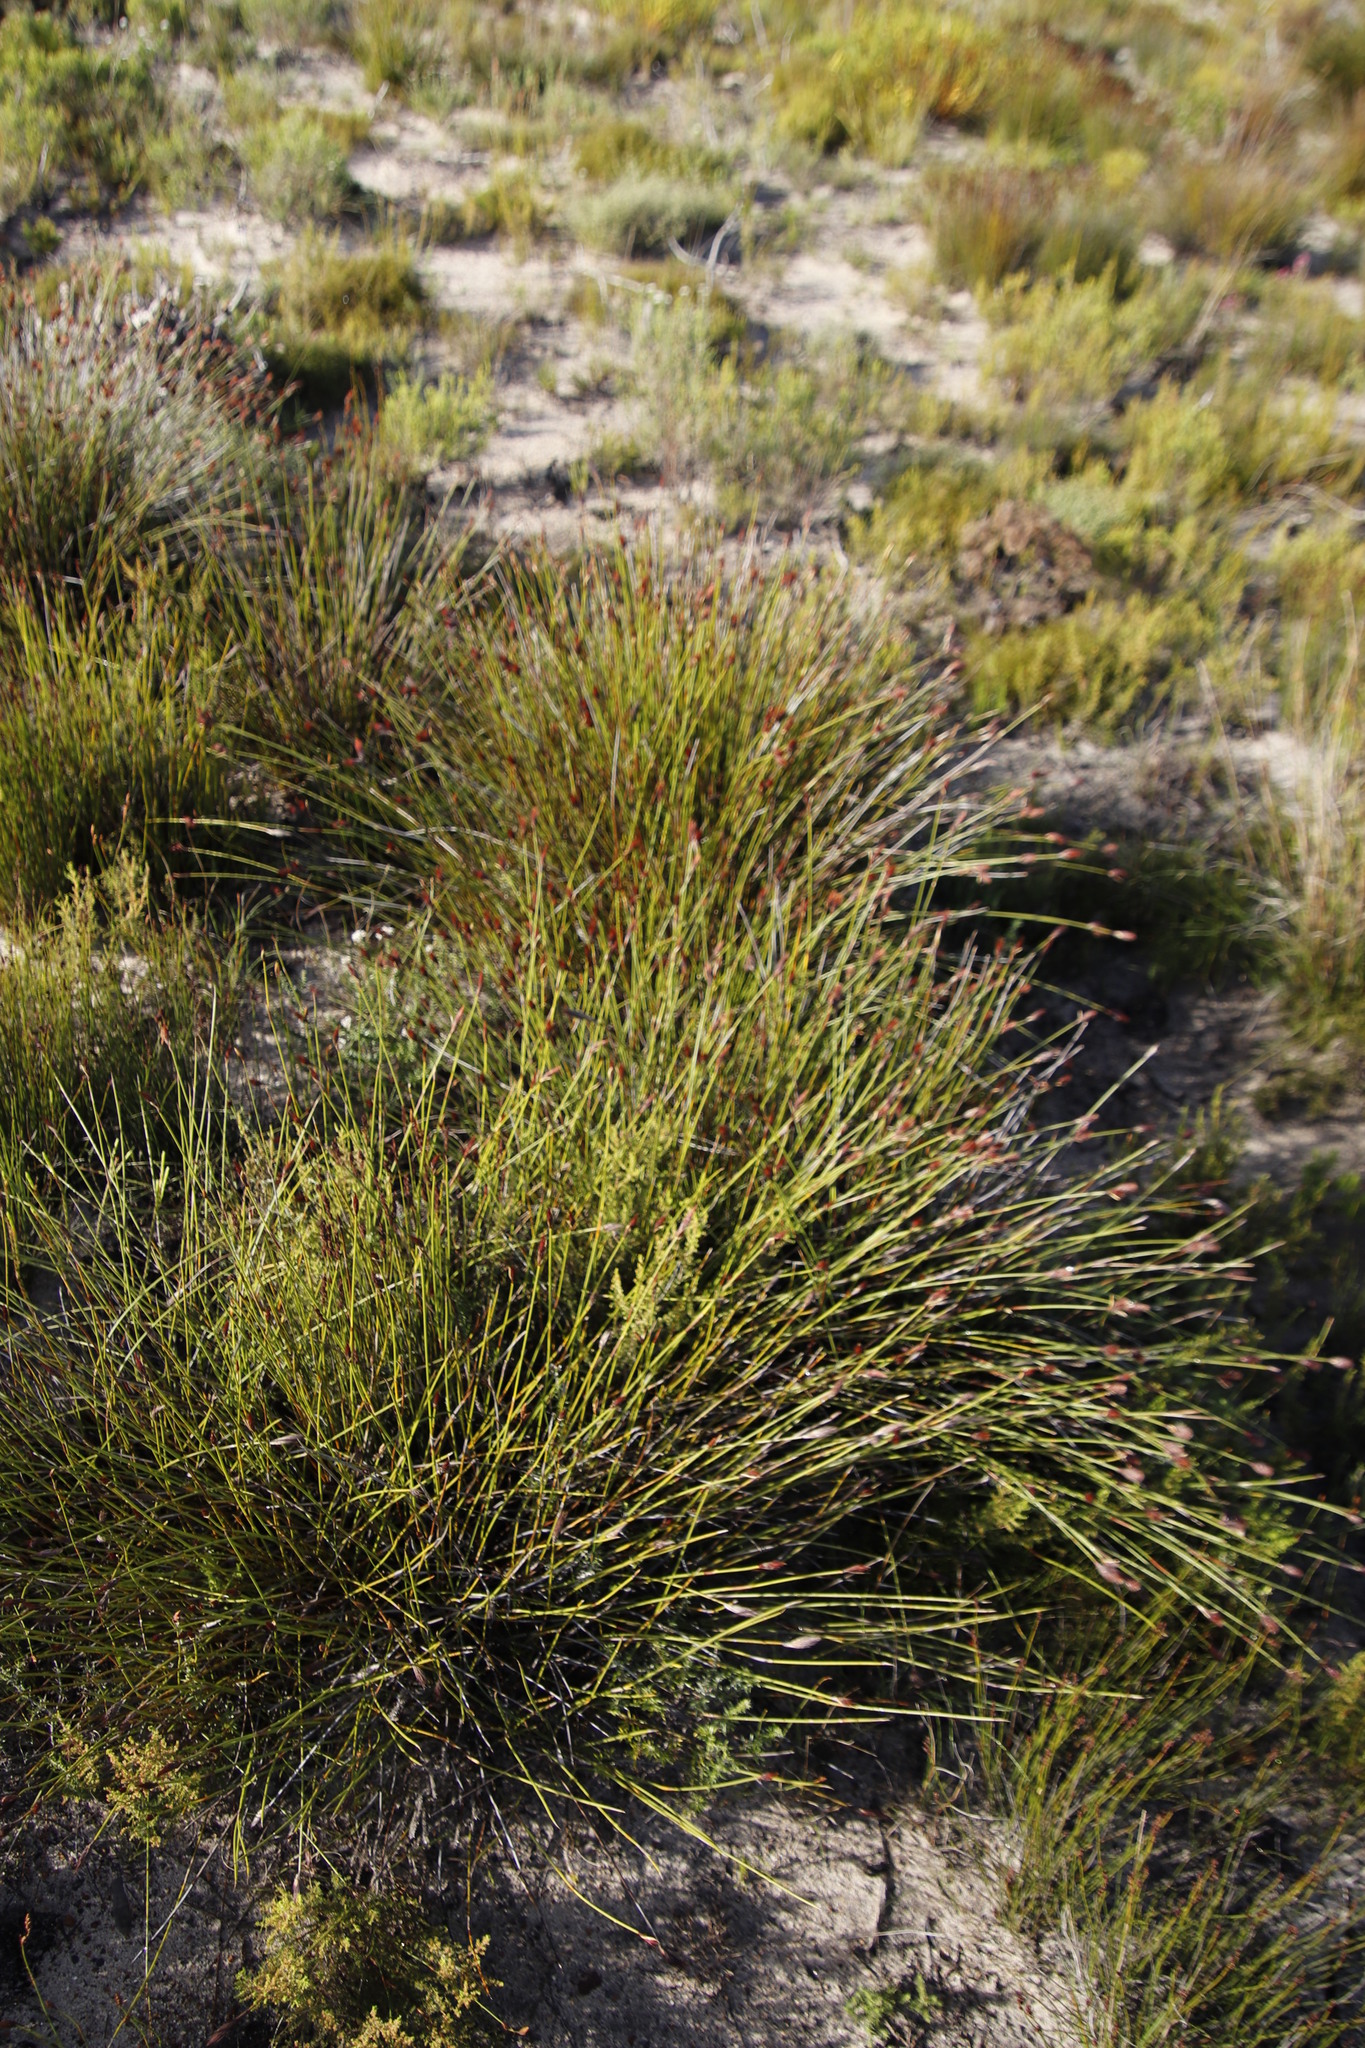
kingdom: Plantae
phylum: Tracheophyta
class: Liliopsida
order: Poales
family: Restionaceae
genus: Hypodiscus
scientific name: Hypodiscus aristatus
